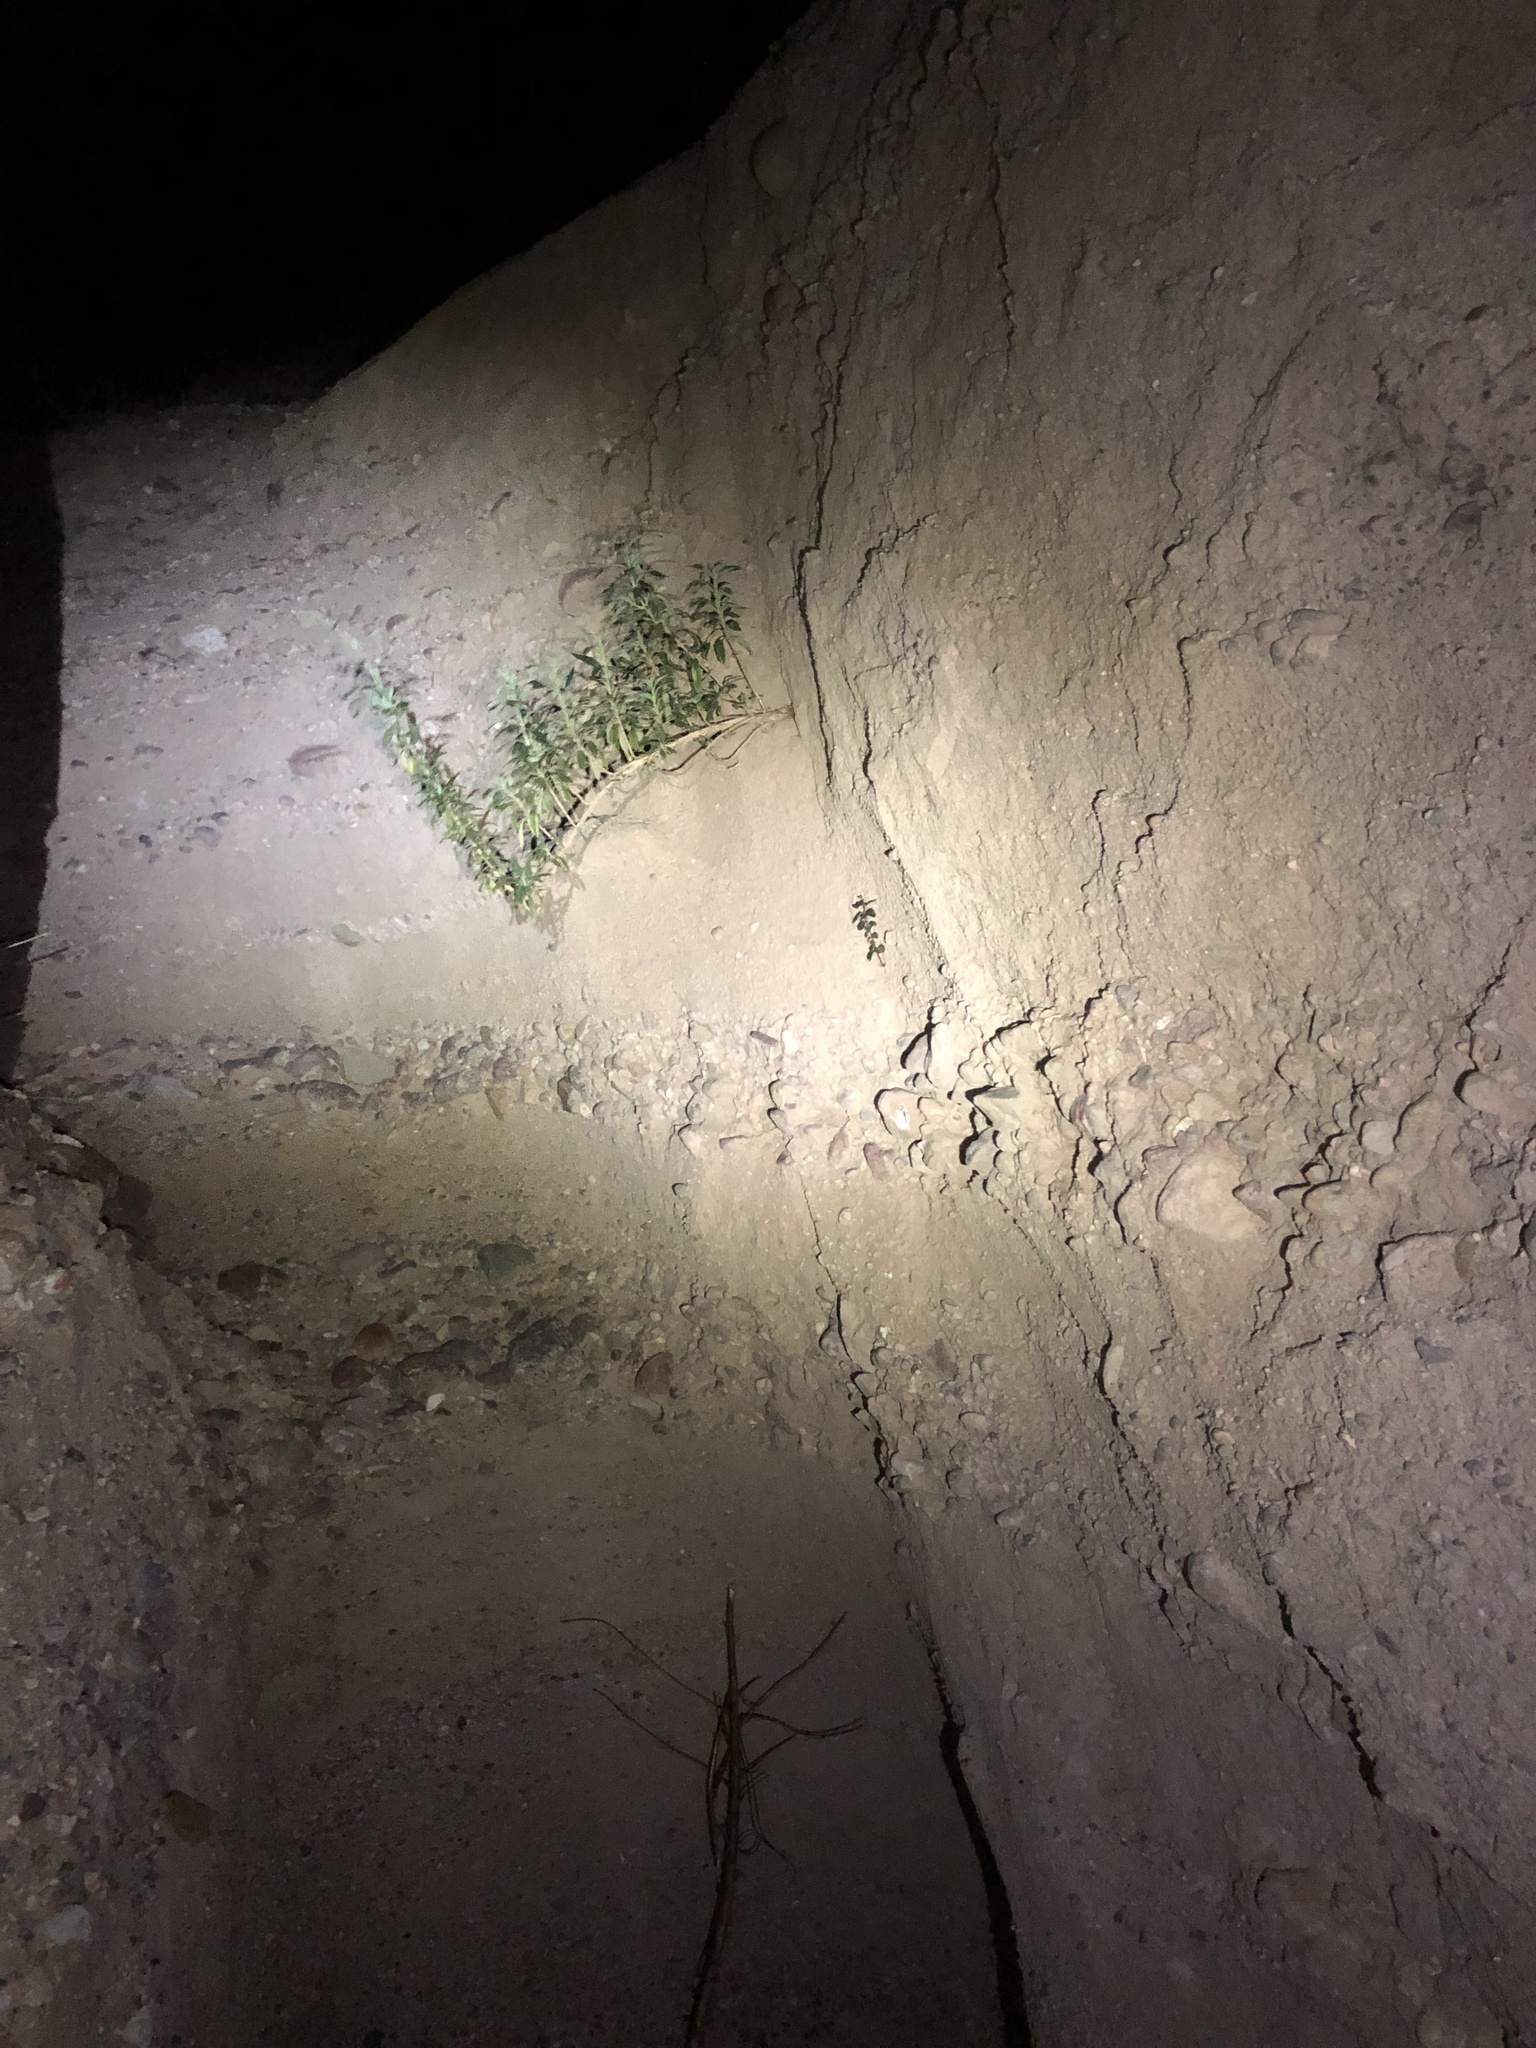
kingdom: Plantae
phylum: Tracheophyta
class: Magnoliopsida
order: Rosales
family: Rosaceae
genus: Prunus
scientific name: Prunus ilicifolia
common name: Hollyleaf cherry
